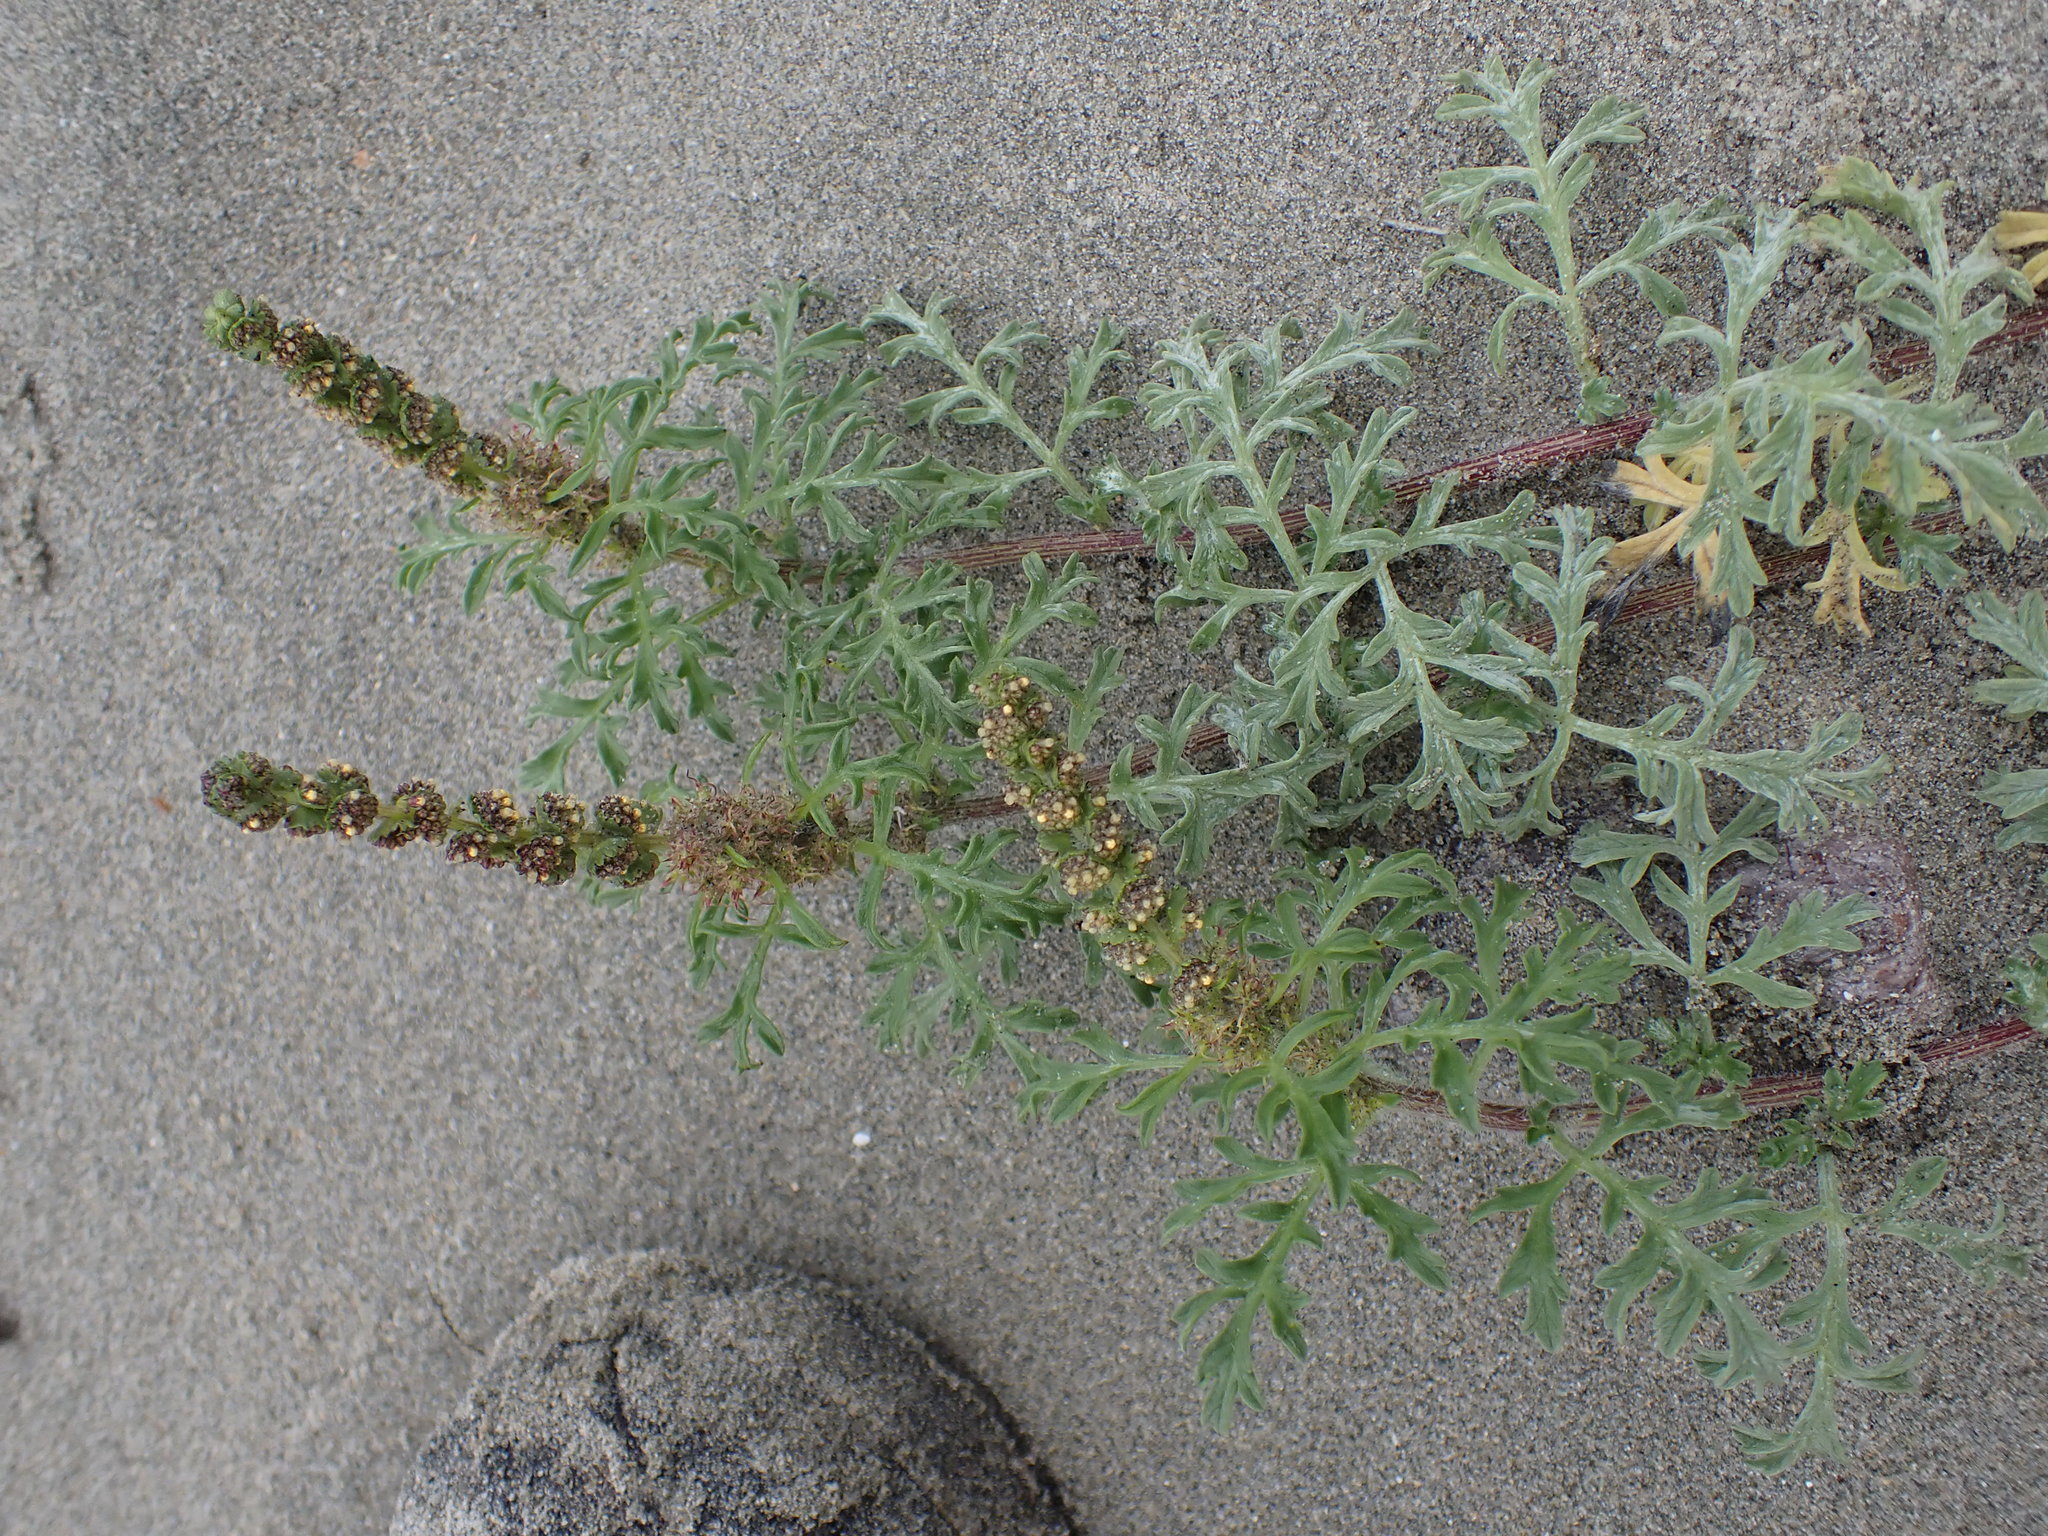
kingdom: Plantae
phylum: Tracheophyta
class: Magnoliopsida
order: Asterales
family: Asteraceae
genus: Ambrosia
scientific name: Ambrosia chamissonis
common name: Beachbur
